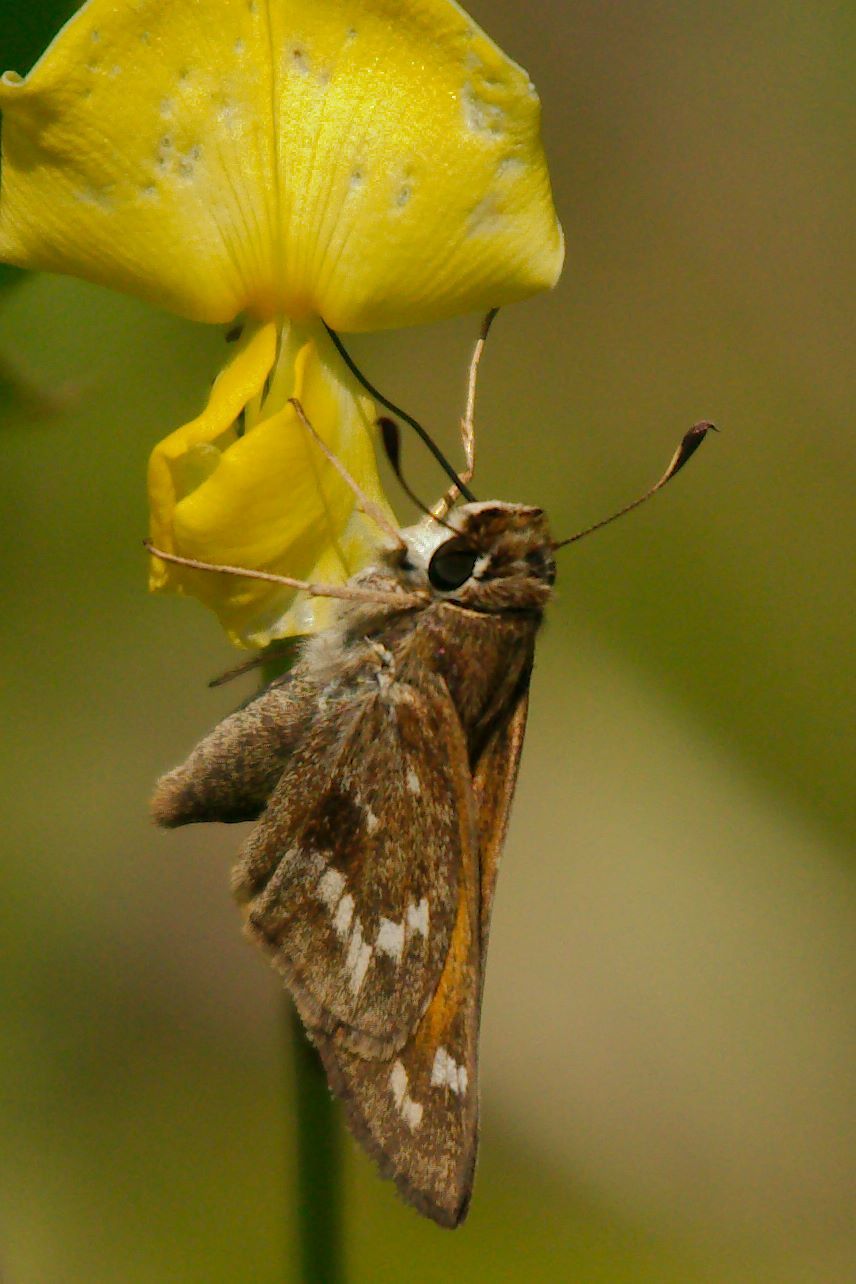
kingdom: Animalia
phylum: Arthropoda
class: Insecta
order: Lepidoptera
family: Hesperiidae
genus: Atalopedes
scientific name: Atalopedes
